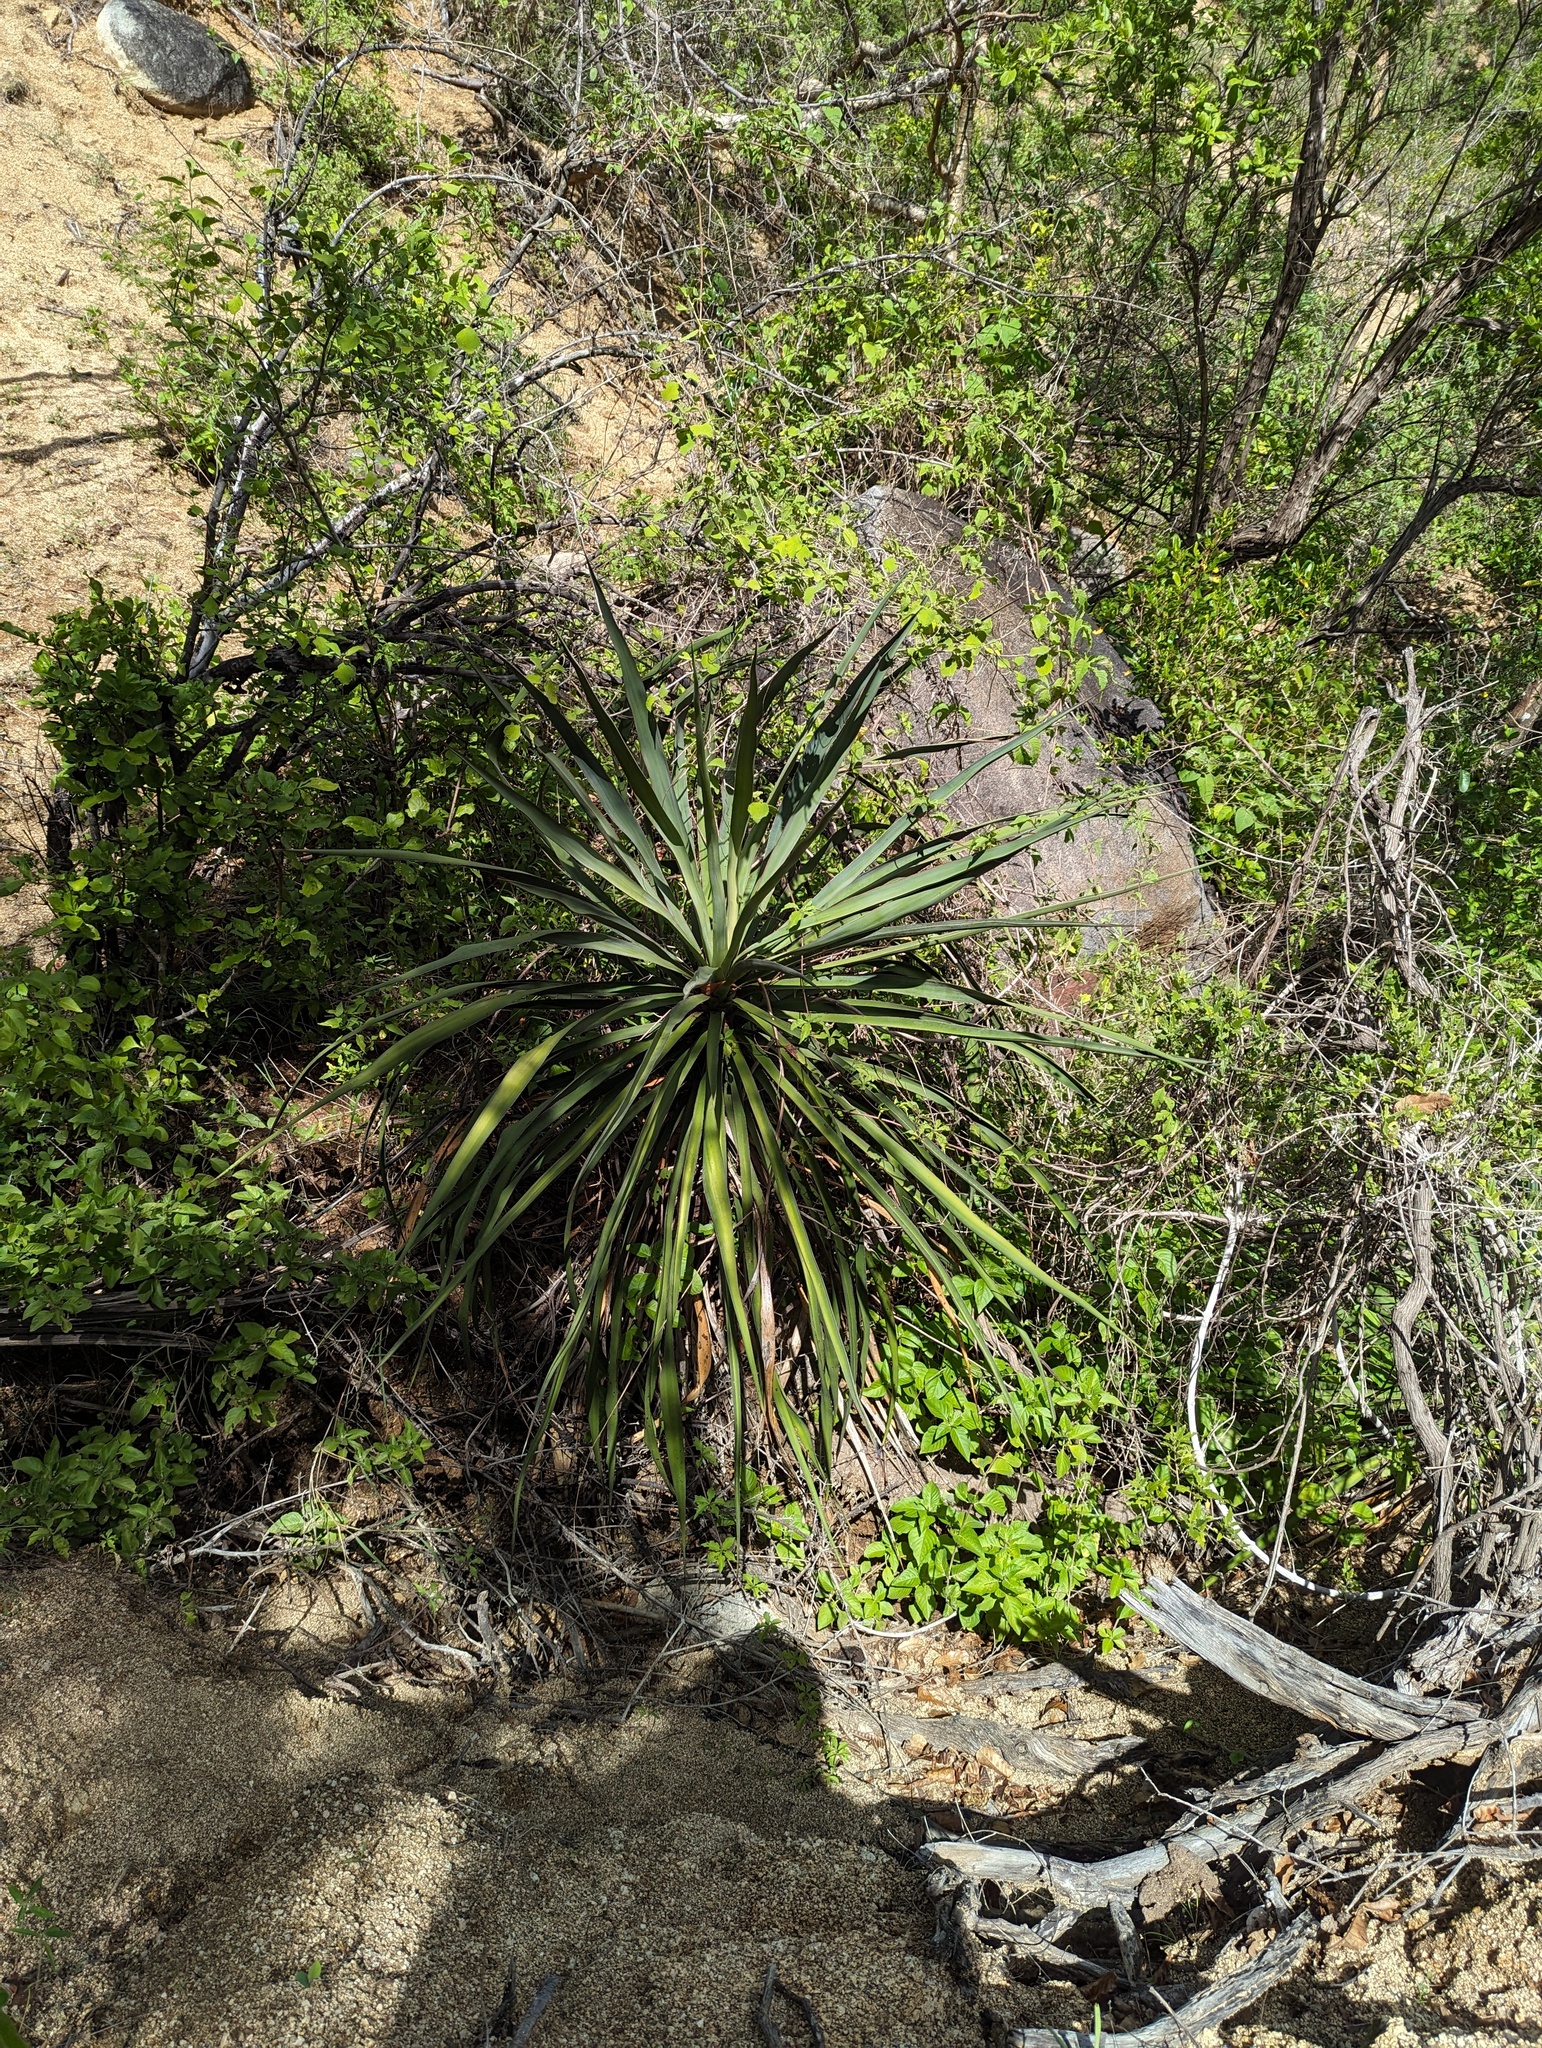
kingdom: Plantae
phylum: Tracheophyta
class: Liliopsida
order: Asparagales
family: Asparagaceae
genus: Yucca
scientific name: Yucca capensis
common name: Cape region yucca
